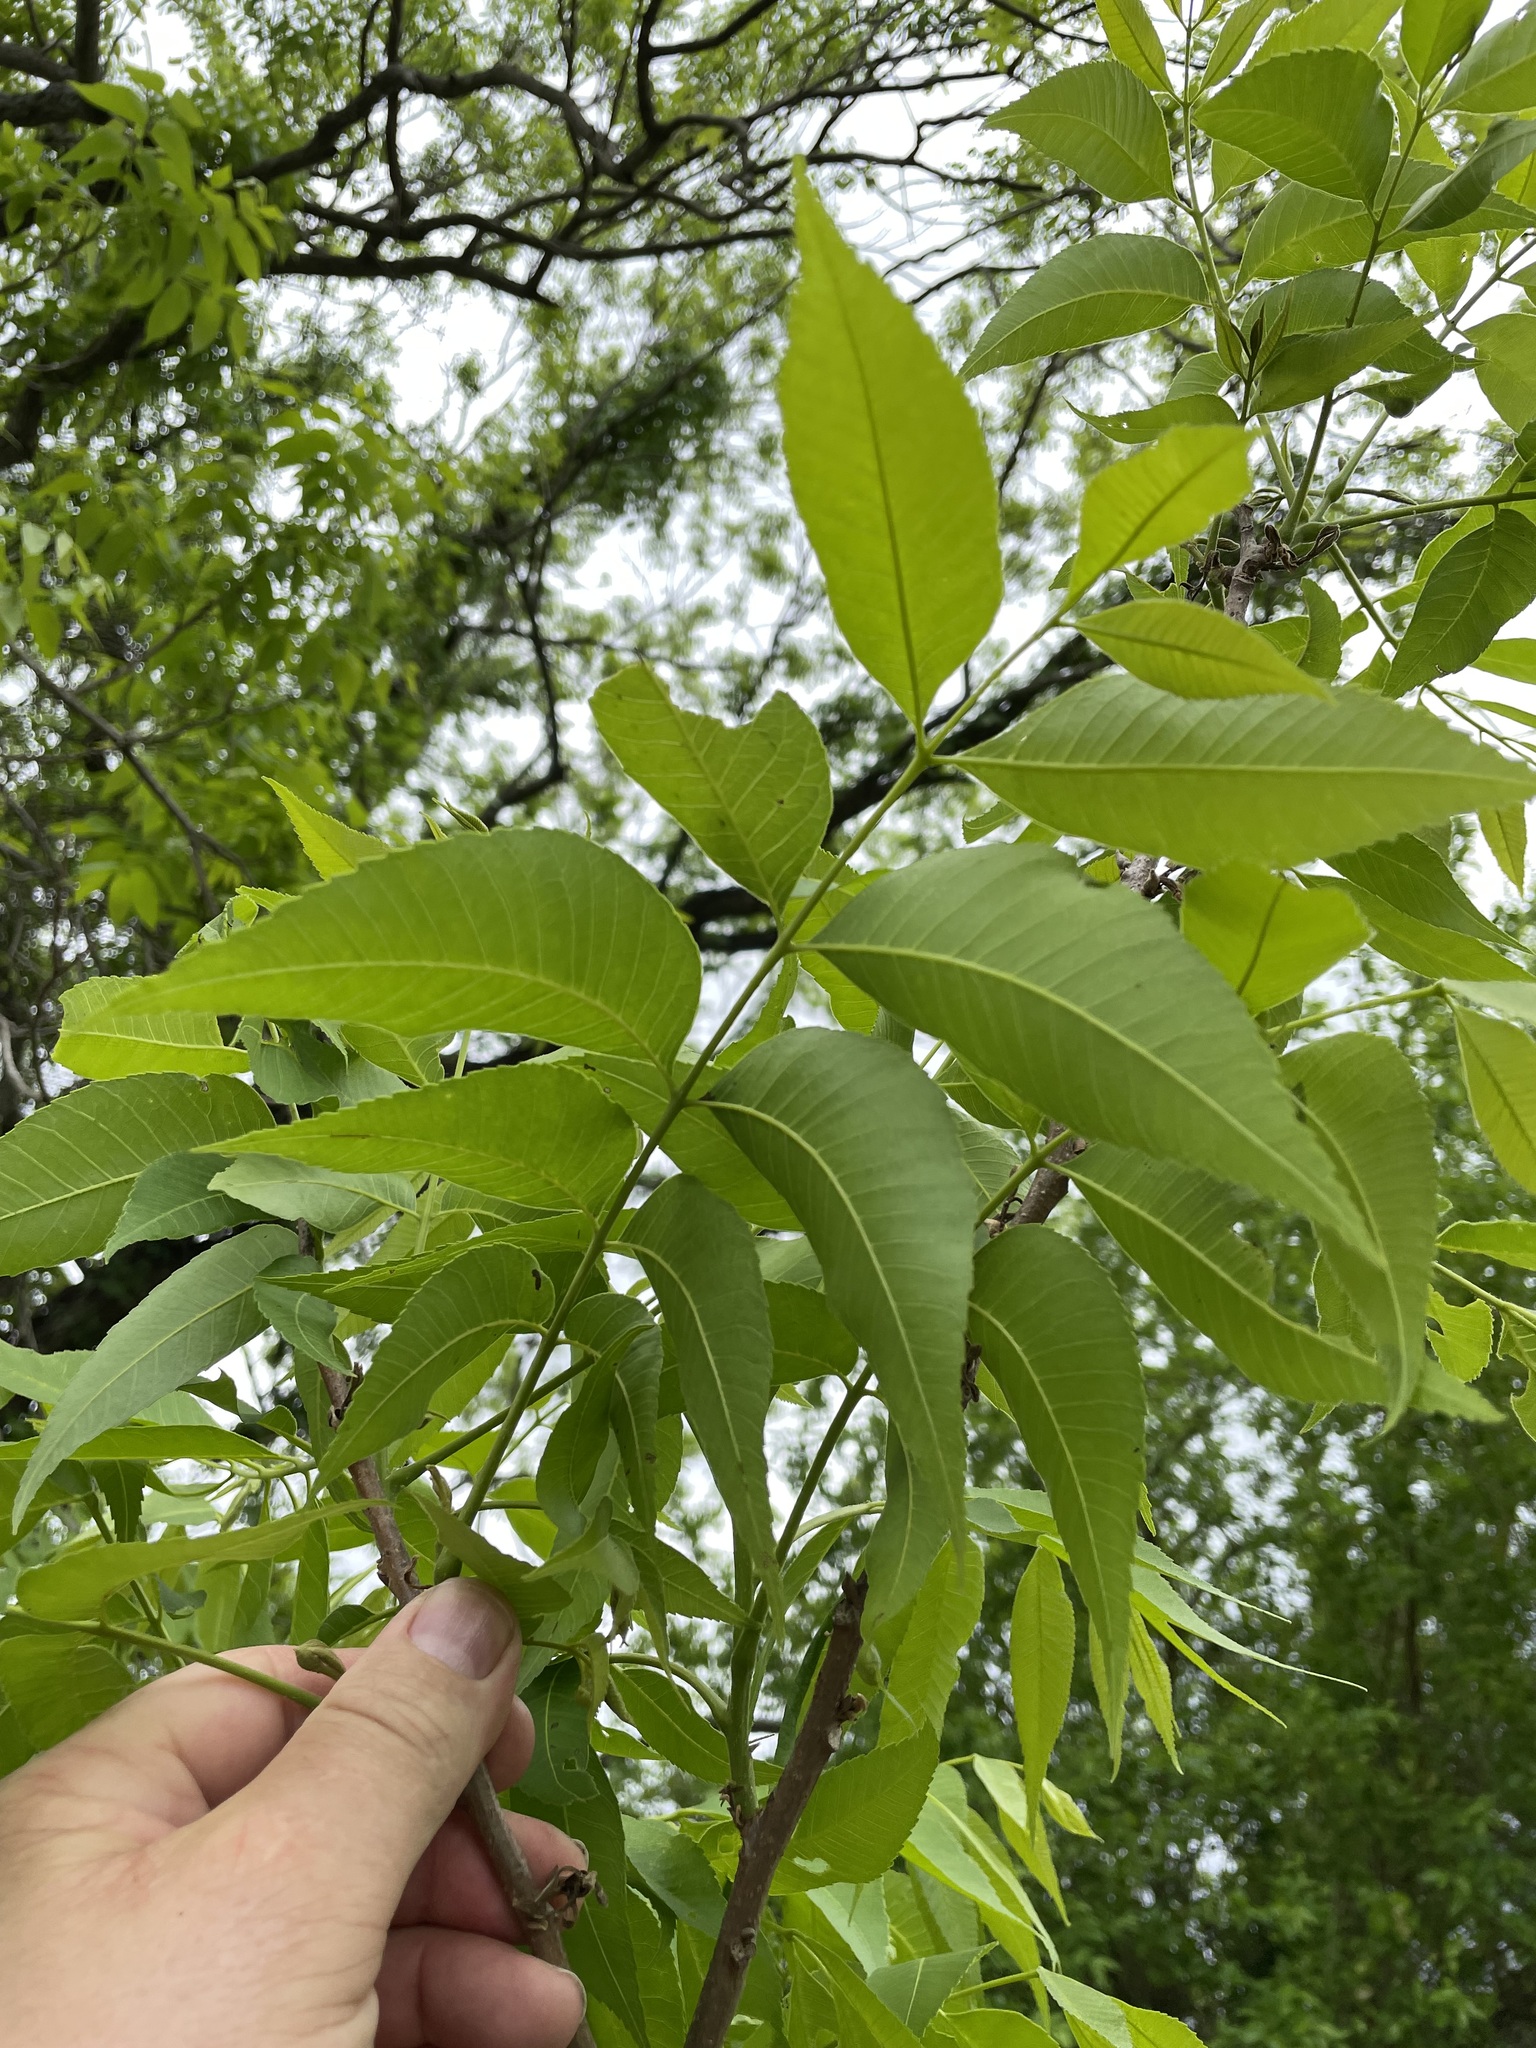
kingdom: Plantae
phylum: Tracheophyta
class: Magnoliopsida
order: Fagales
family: Juglandaceae
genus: Carya
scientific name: Carya illinoinensis
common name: Pecan
